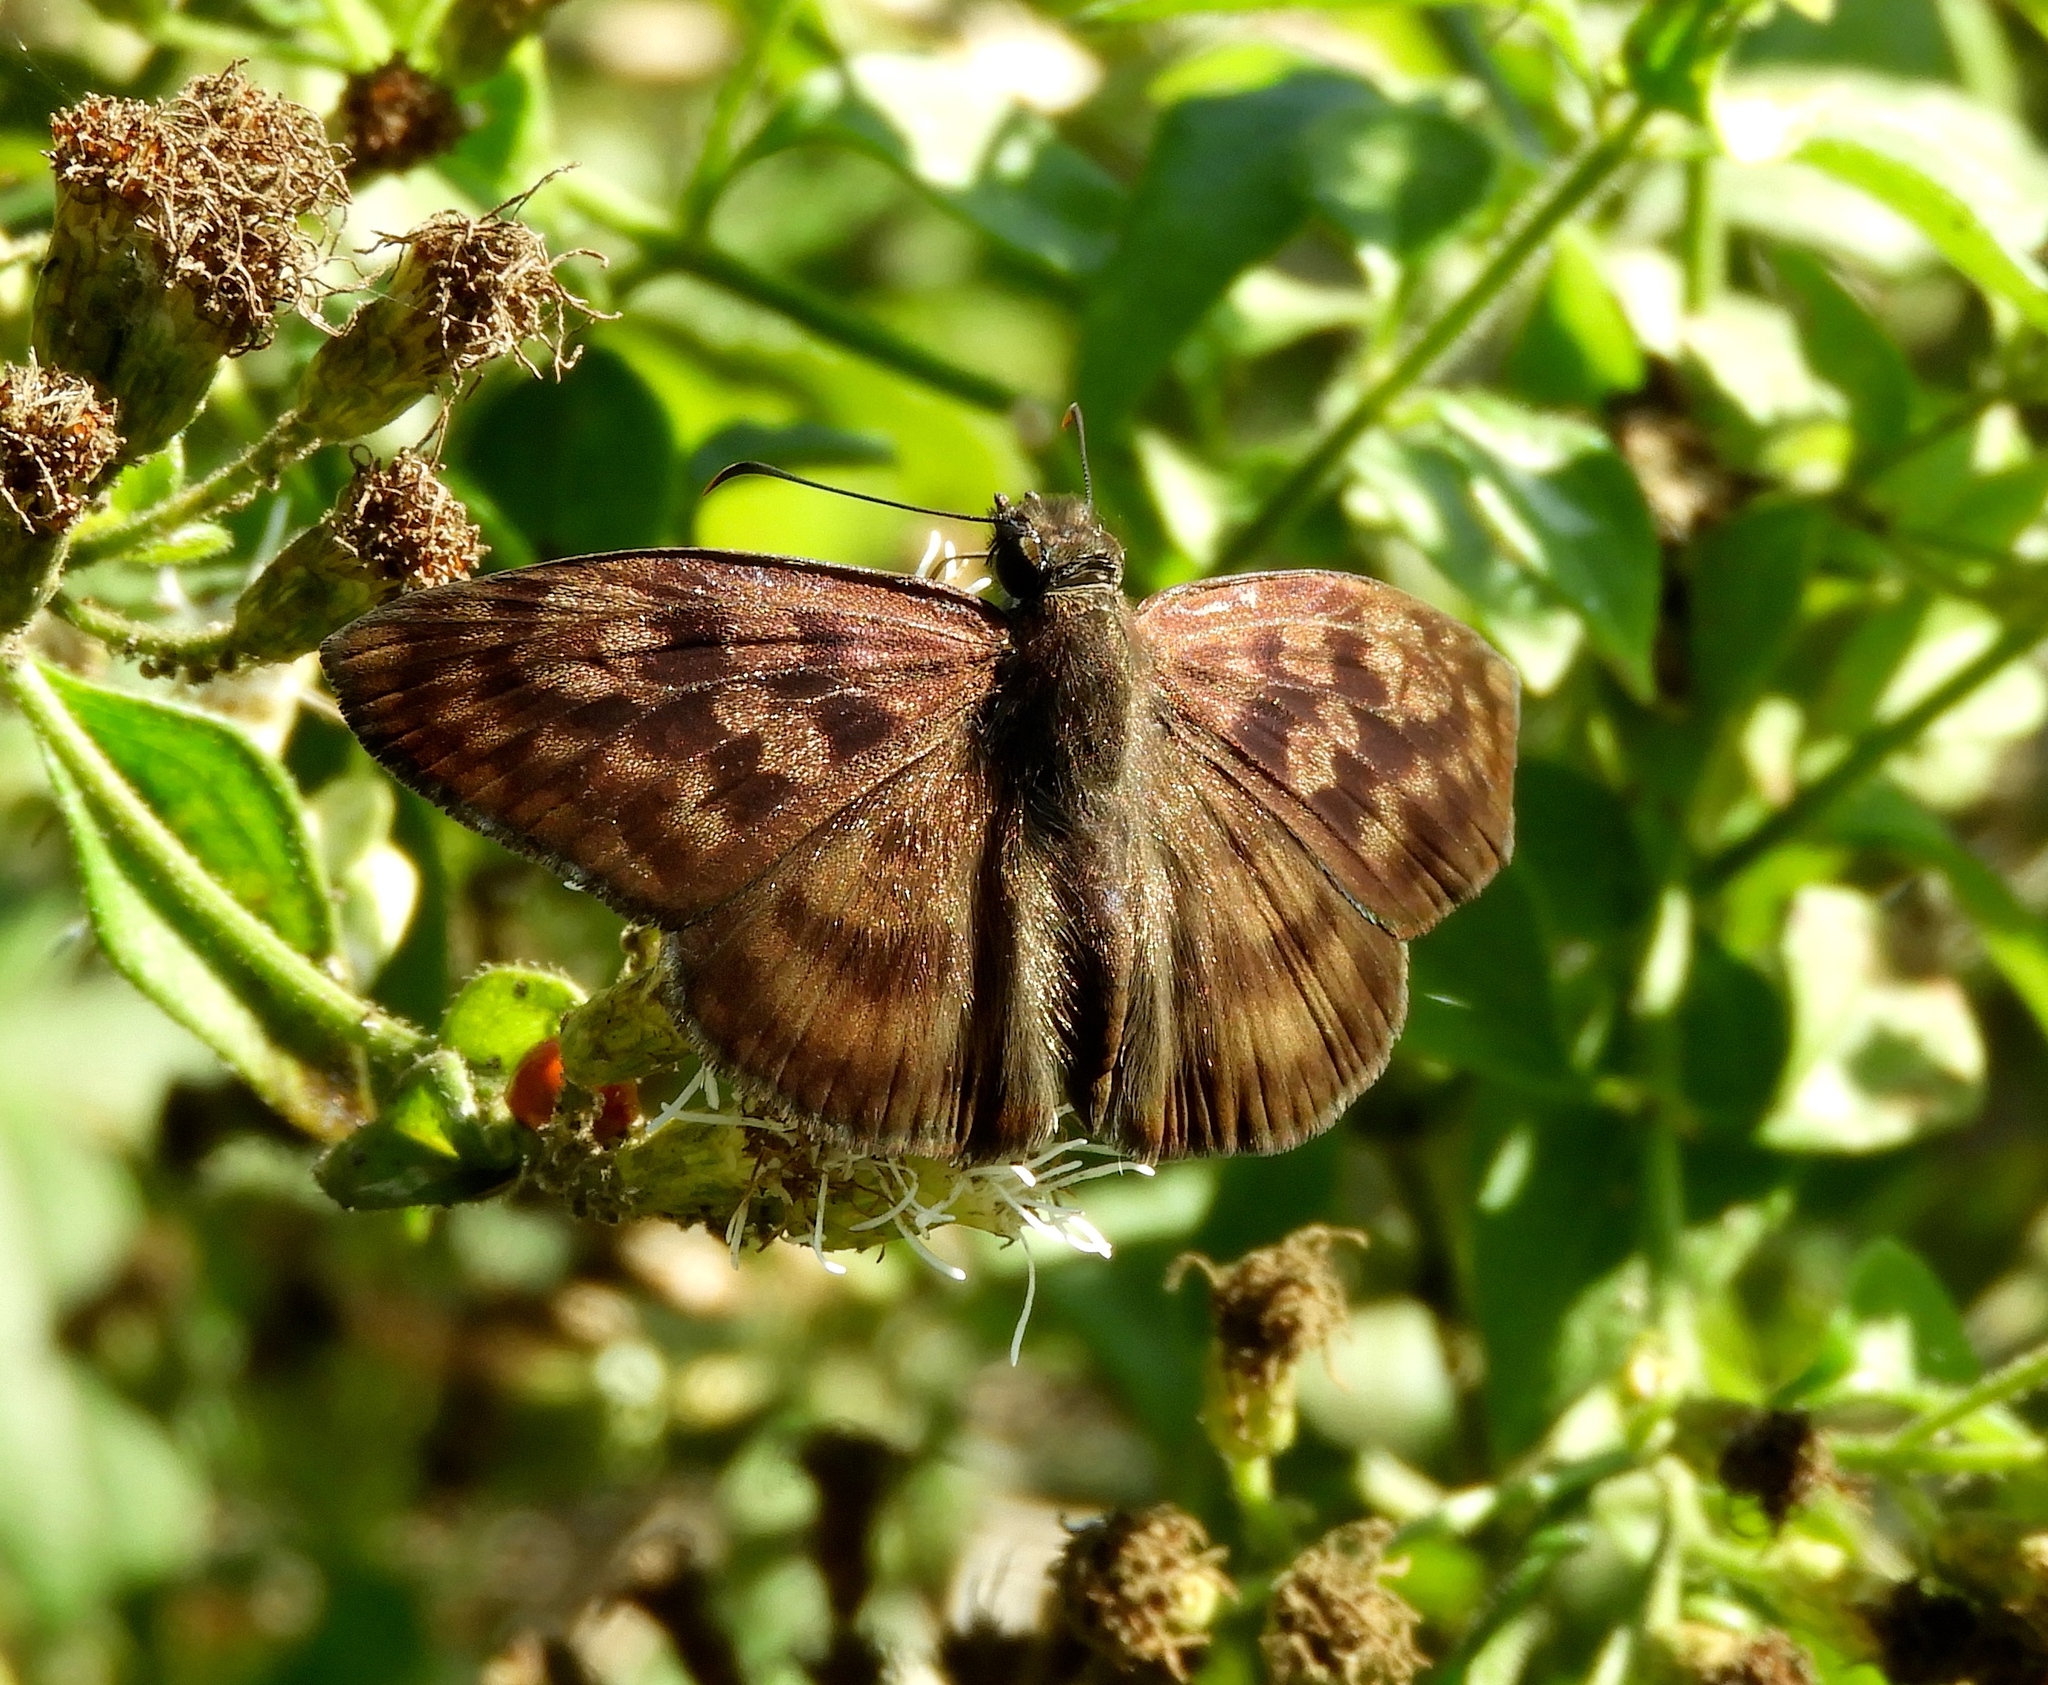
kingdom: Animalia
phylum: Arthropoda
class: Insecta
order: Lepidoptera
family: Hesperiidae
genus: Anastrus
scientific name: Anastrus Echelatus sempiternus
